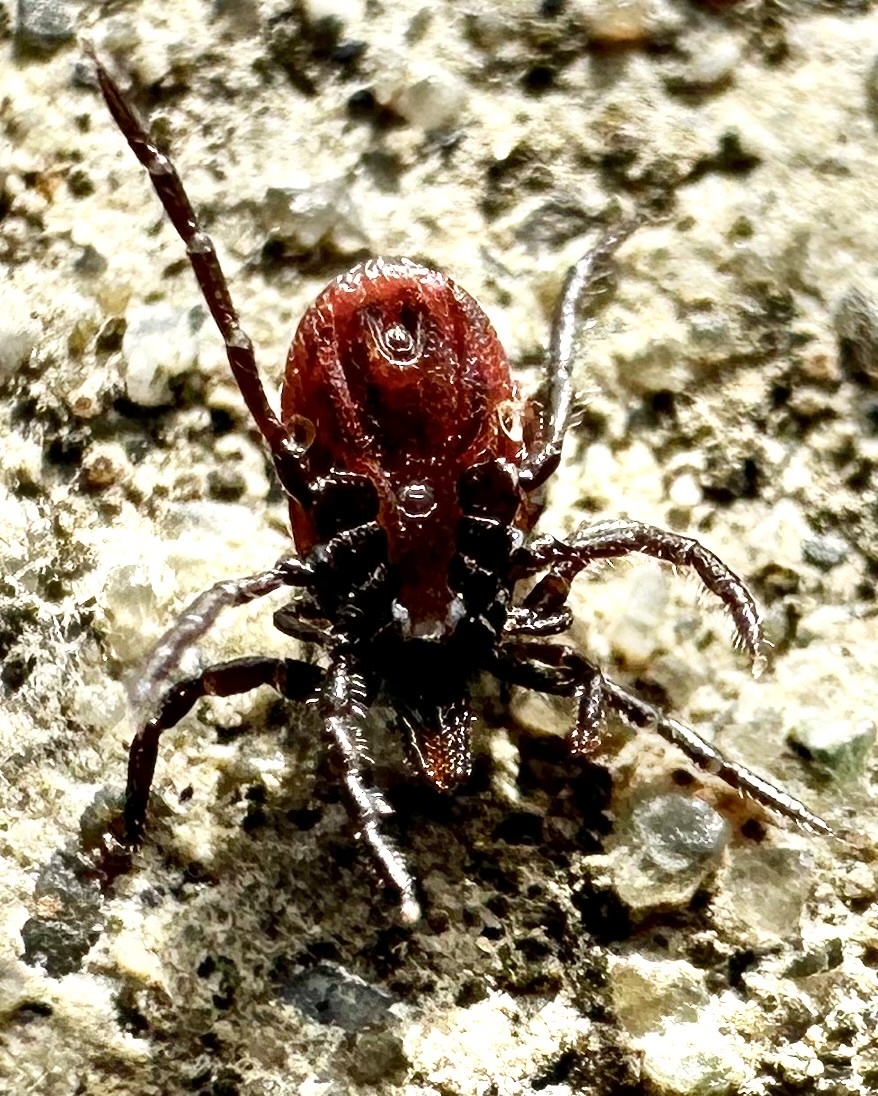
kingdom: Animalia
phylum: Arthropoda
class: Arachnida
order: Ixodida
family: Ixodidae
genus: Ixodes
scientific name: Ixodes pacificus
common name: California black-legged tick
